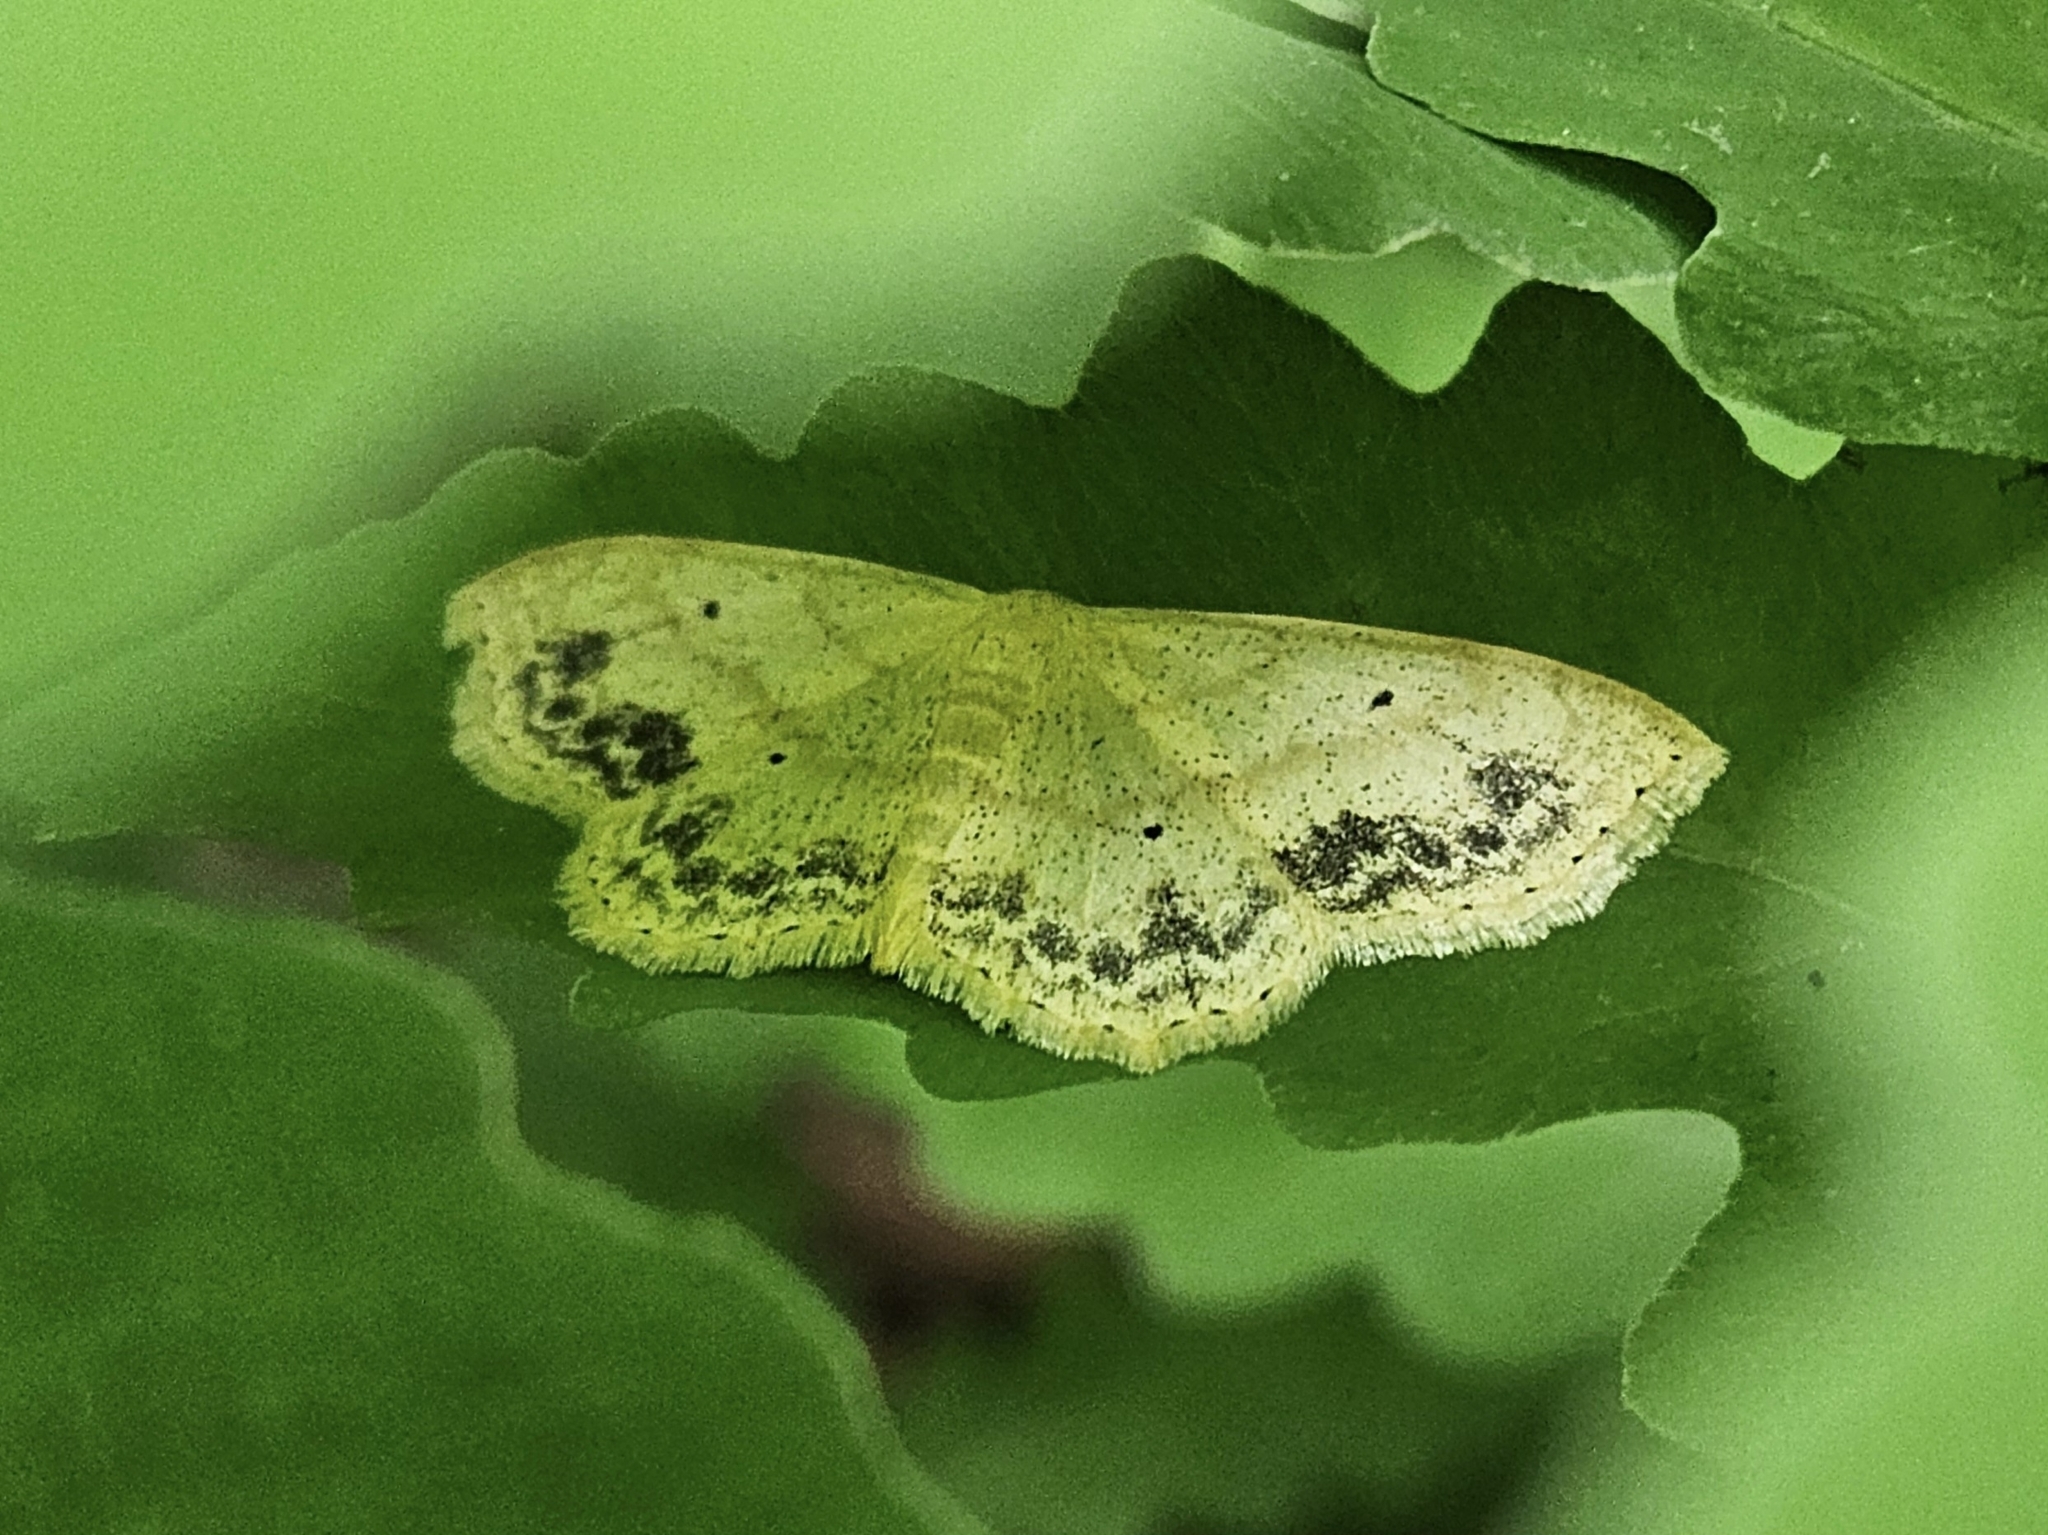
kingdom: Animalia
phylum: Arthropoda
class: Insecta
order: Lepidoptera
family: Geometridae
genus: Scopula
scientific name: Scopula limboundata
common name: Large lace border
